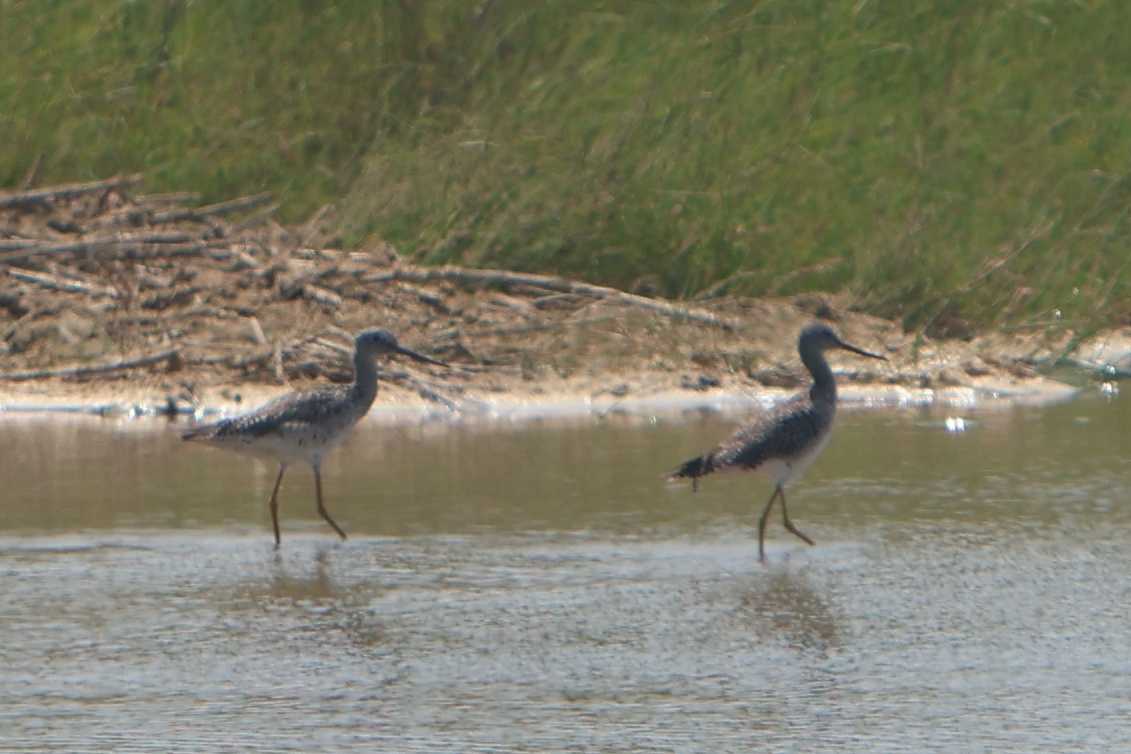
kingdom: Animalia
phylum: Chordata
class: Aves
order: Charadriiformes
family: Scolopacidae
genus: Tringa
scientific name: Tringa melanoleuca
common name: Greater yellowlegs
